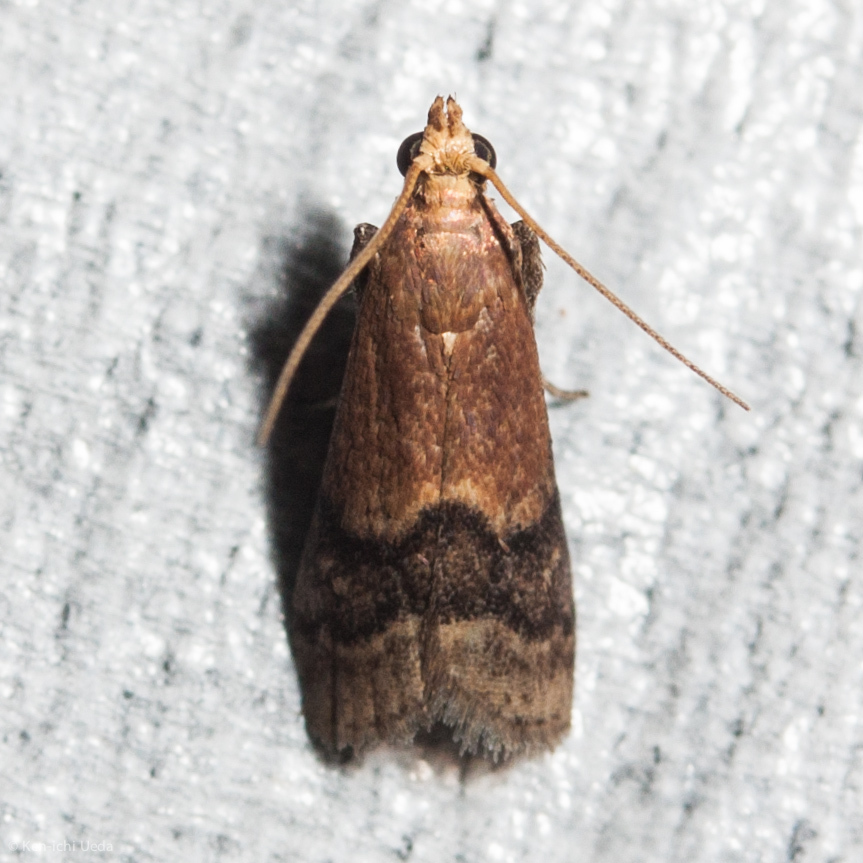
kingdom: Animalia
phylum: Arthropoda
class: Insecta
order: Lepidoptera
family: Pyralidae
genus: Eulogia
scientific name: Eulogia ochrifrontella
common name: Broad-banded eulogia moth
